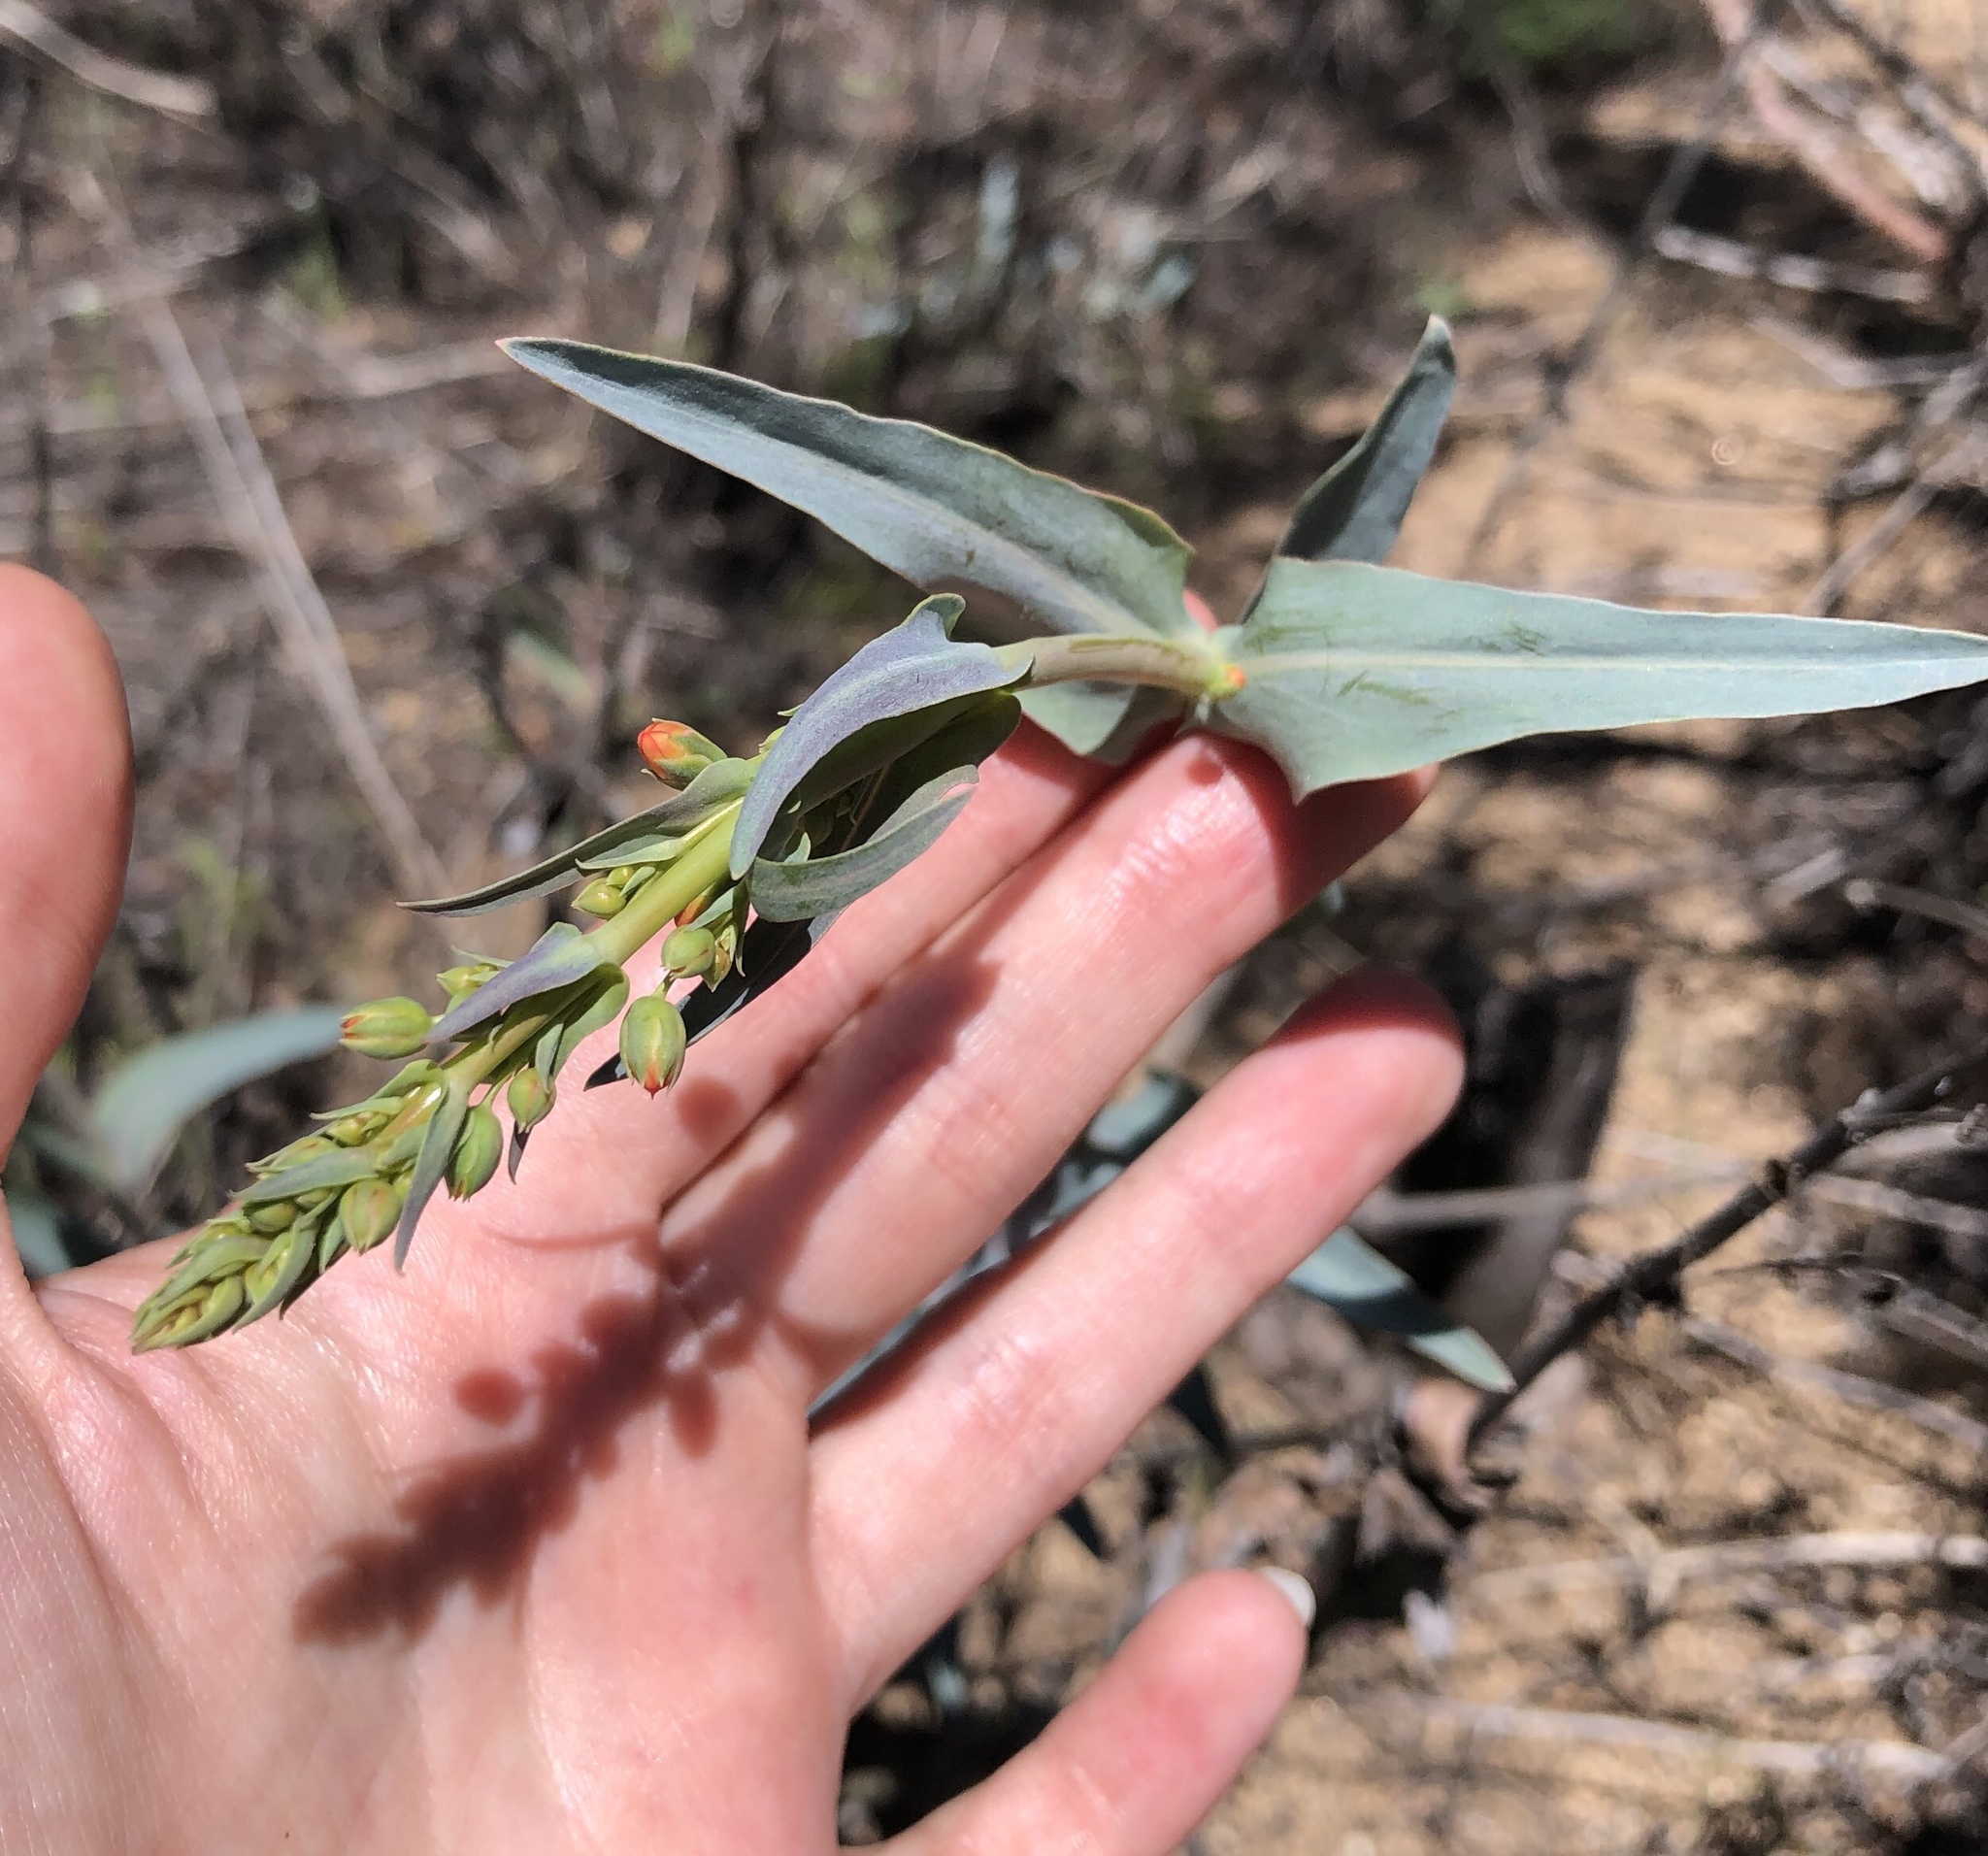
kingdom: Plantae
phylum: Tracheophyta
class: Magnoliopsida
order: Lamiales
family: Plantaginaceae
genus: Penstemon
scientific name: Penstemon centranthifolius
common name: Scarlet bugler
